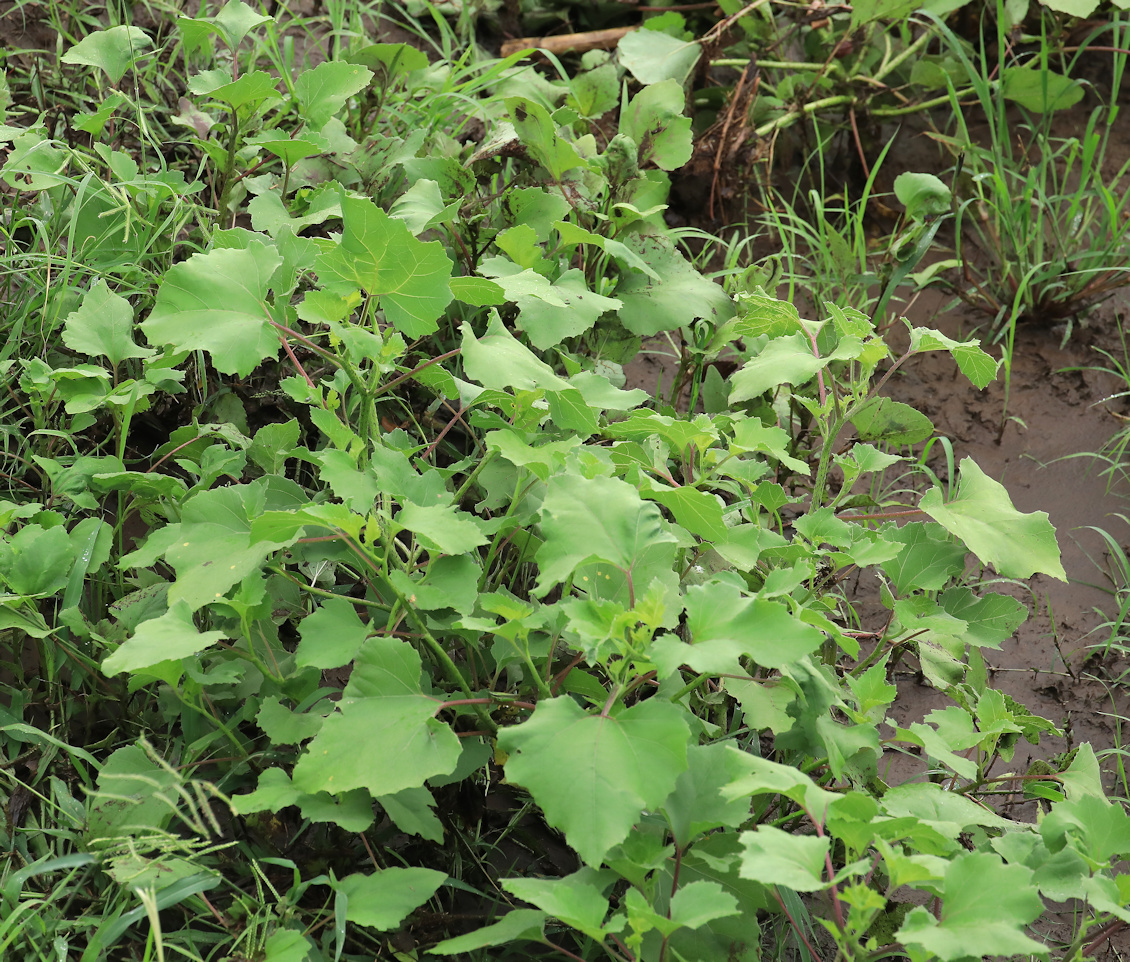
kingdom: Plantae
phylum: Tracheophyta
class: Magnoliopsida
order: Asterales
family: Asteraceae
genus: Xanthium
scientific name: Xanthium strumarium
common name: Rough cocklebur
